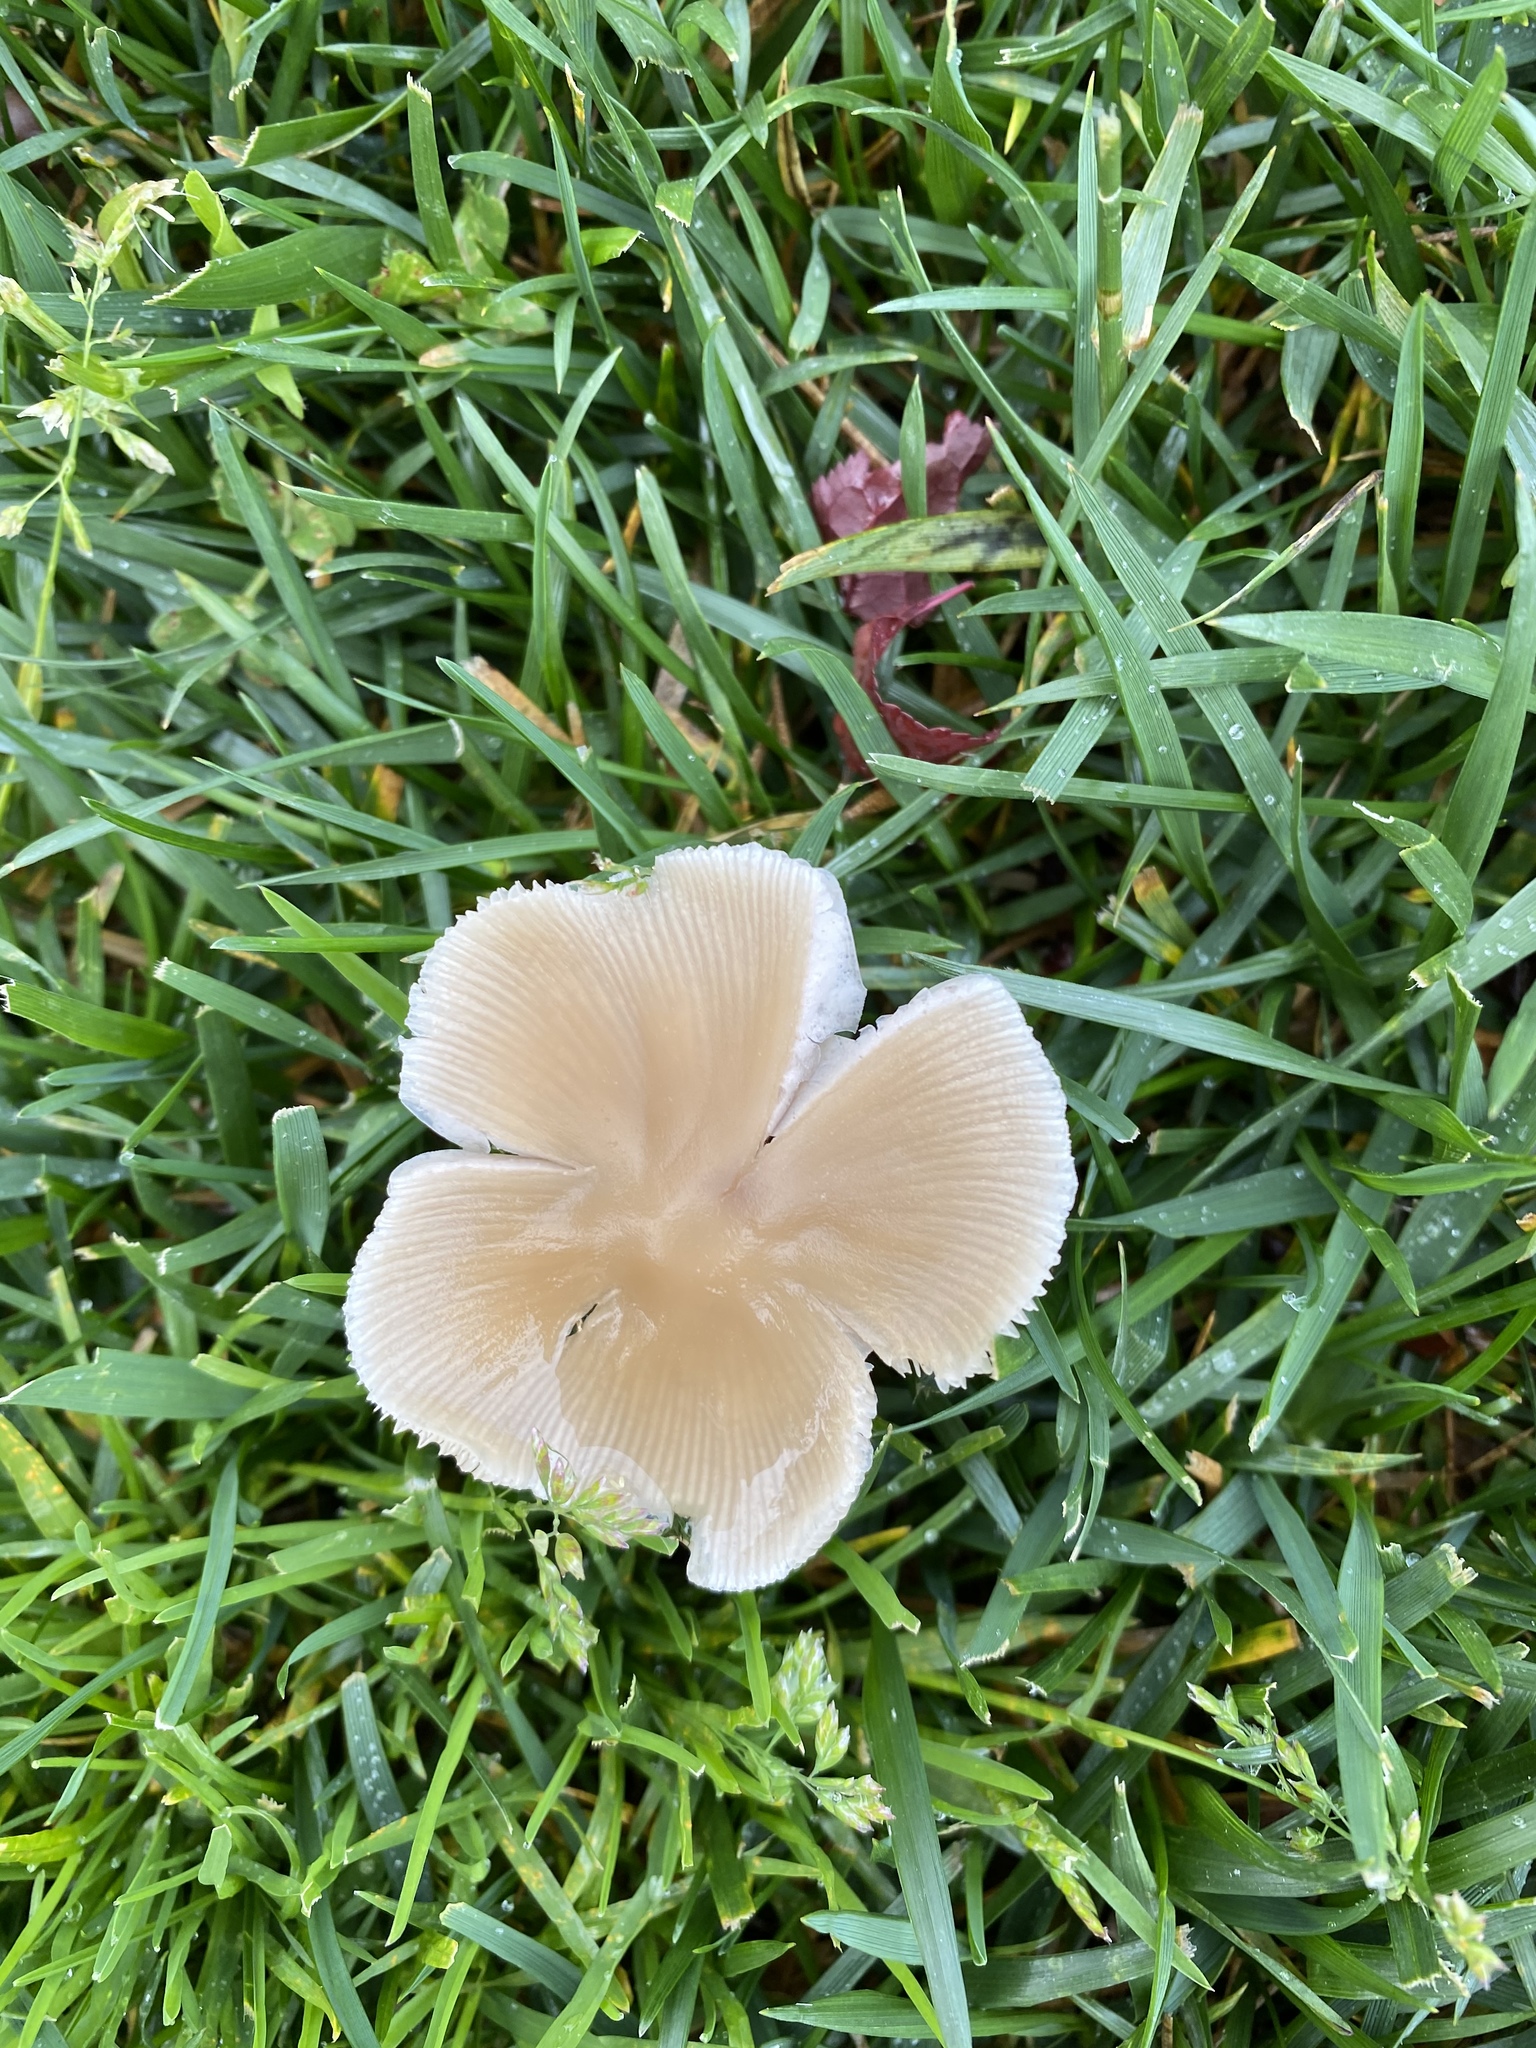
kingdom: Fungi
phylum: Basidiomycota
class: Agaricomycetes
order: Agaricales
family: Psathyrellaceae
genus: Candolleomyces
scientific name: Candolleomyces candolleanus
